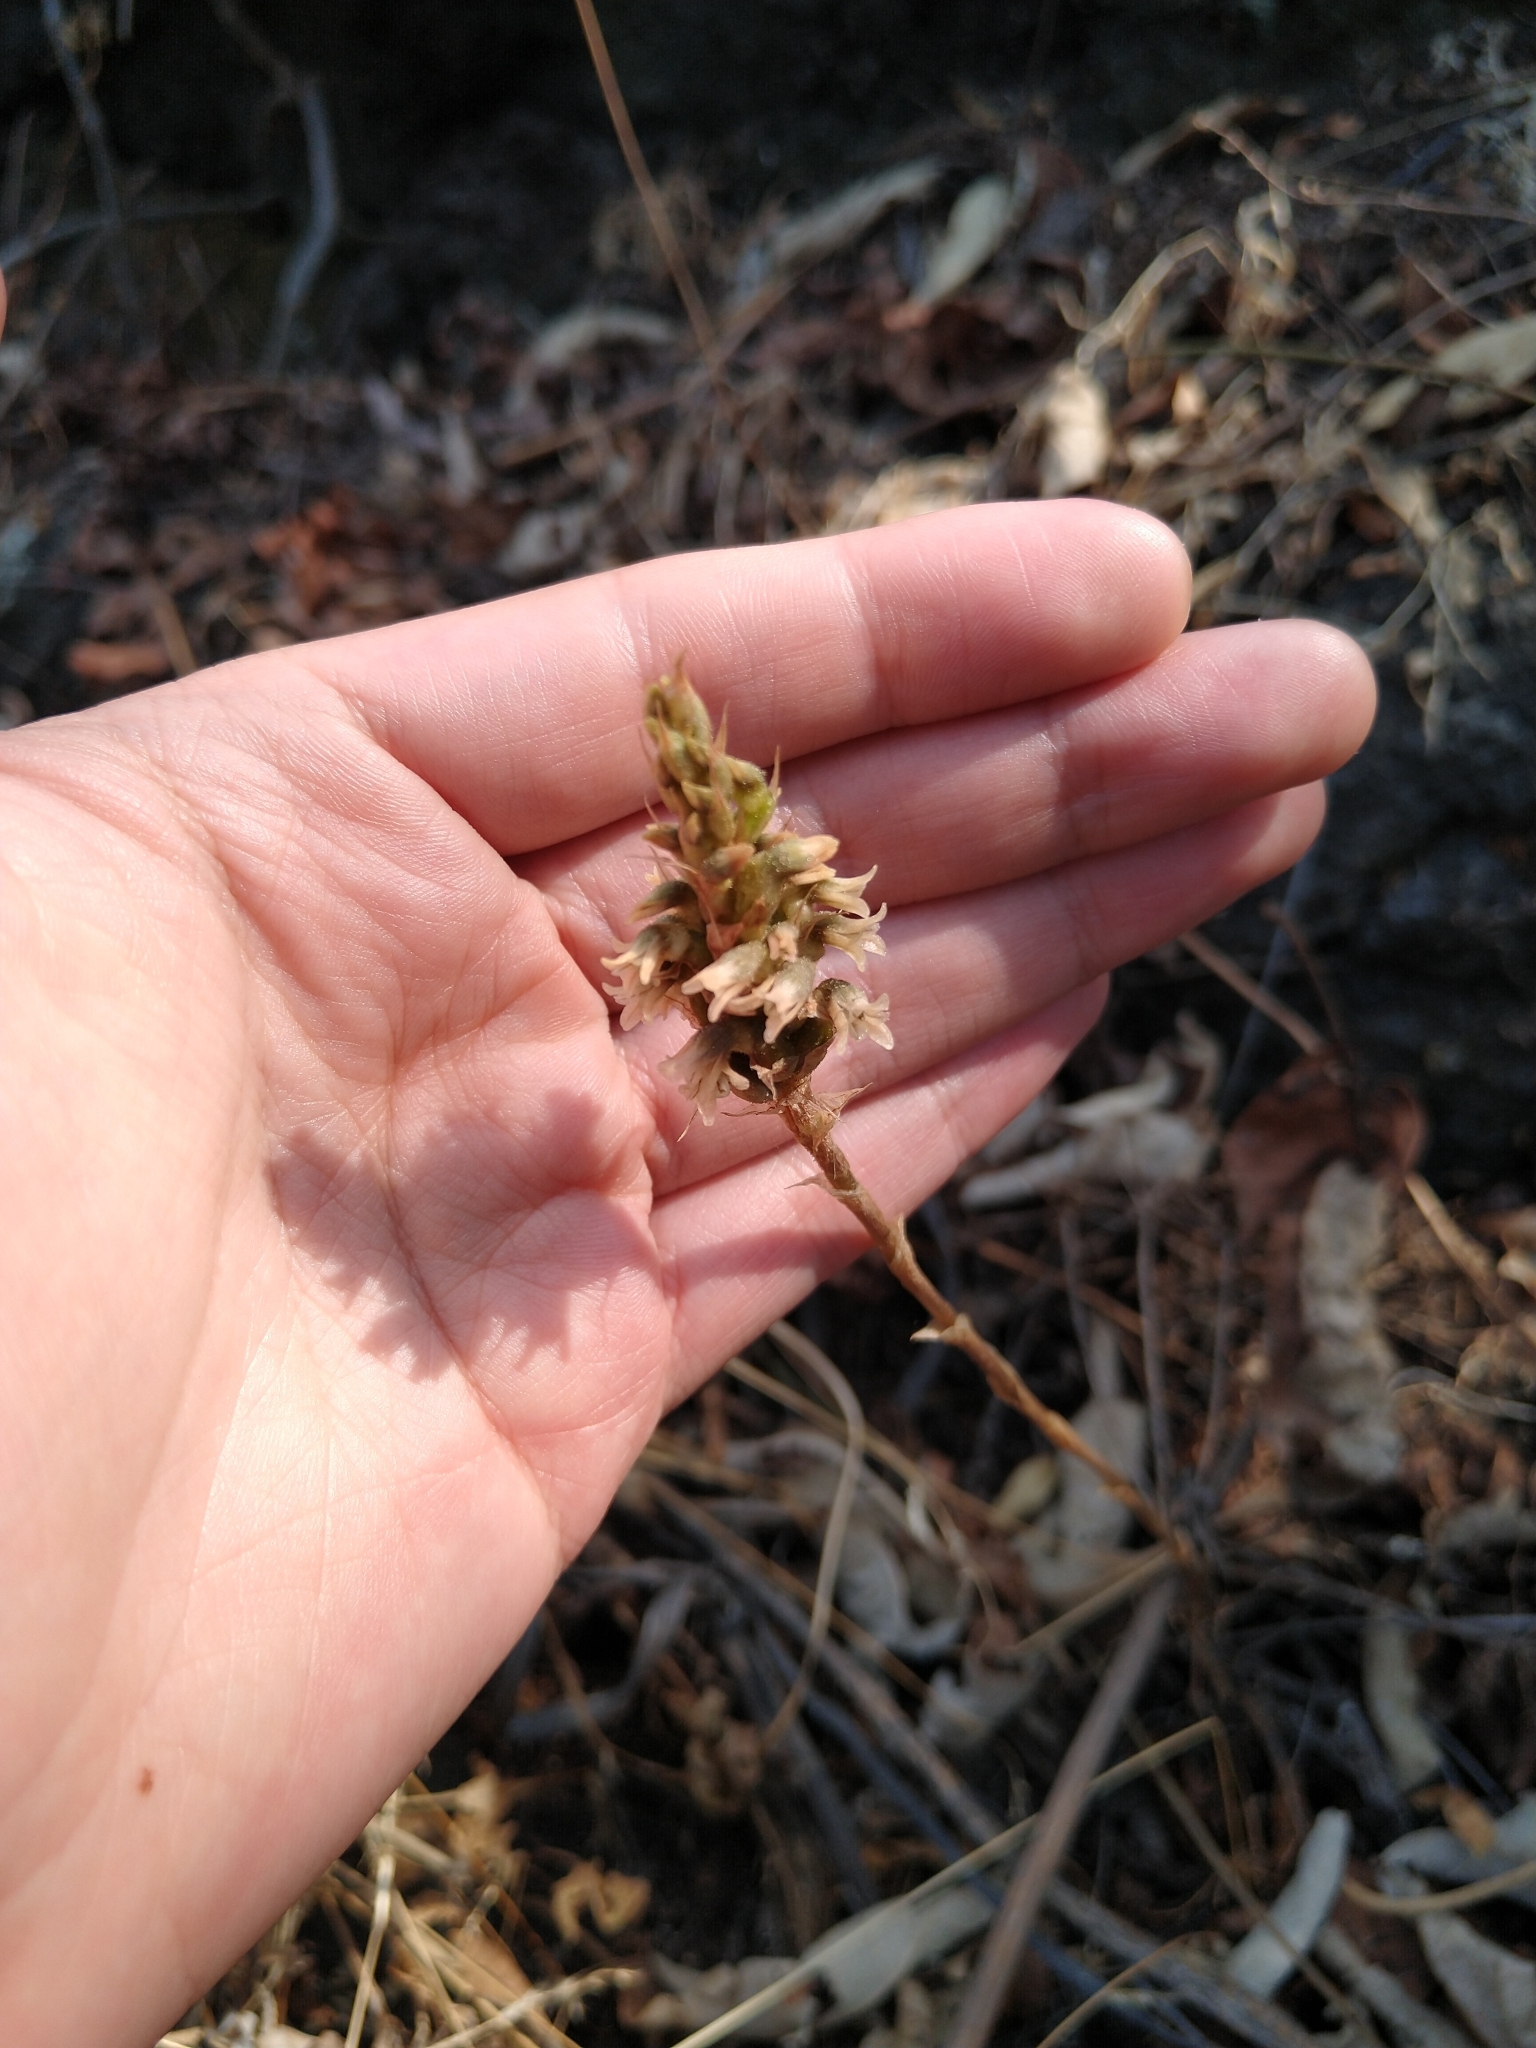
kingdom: Plantae
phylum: Tracheophyta
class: Liliopsida
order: Asparagales
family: Orchidaceae
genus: Aulosepalum
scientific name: Aulosepalum pyramidale
